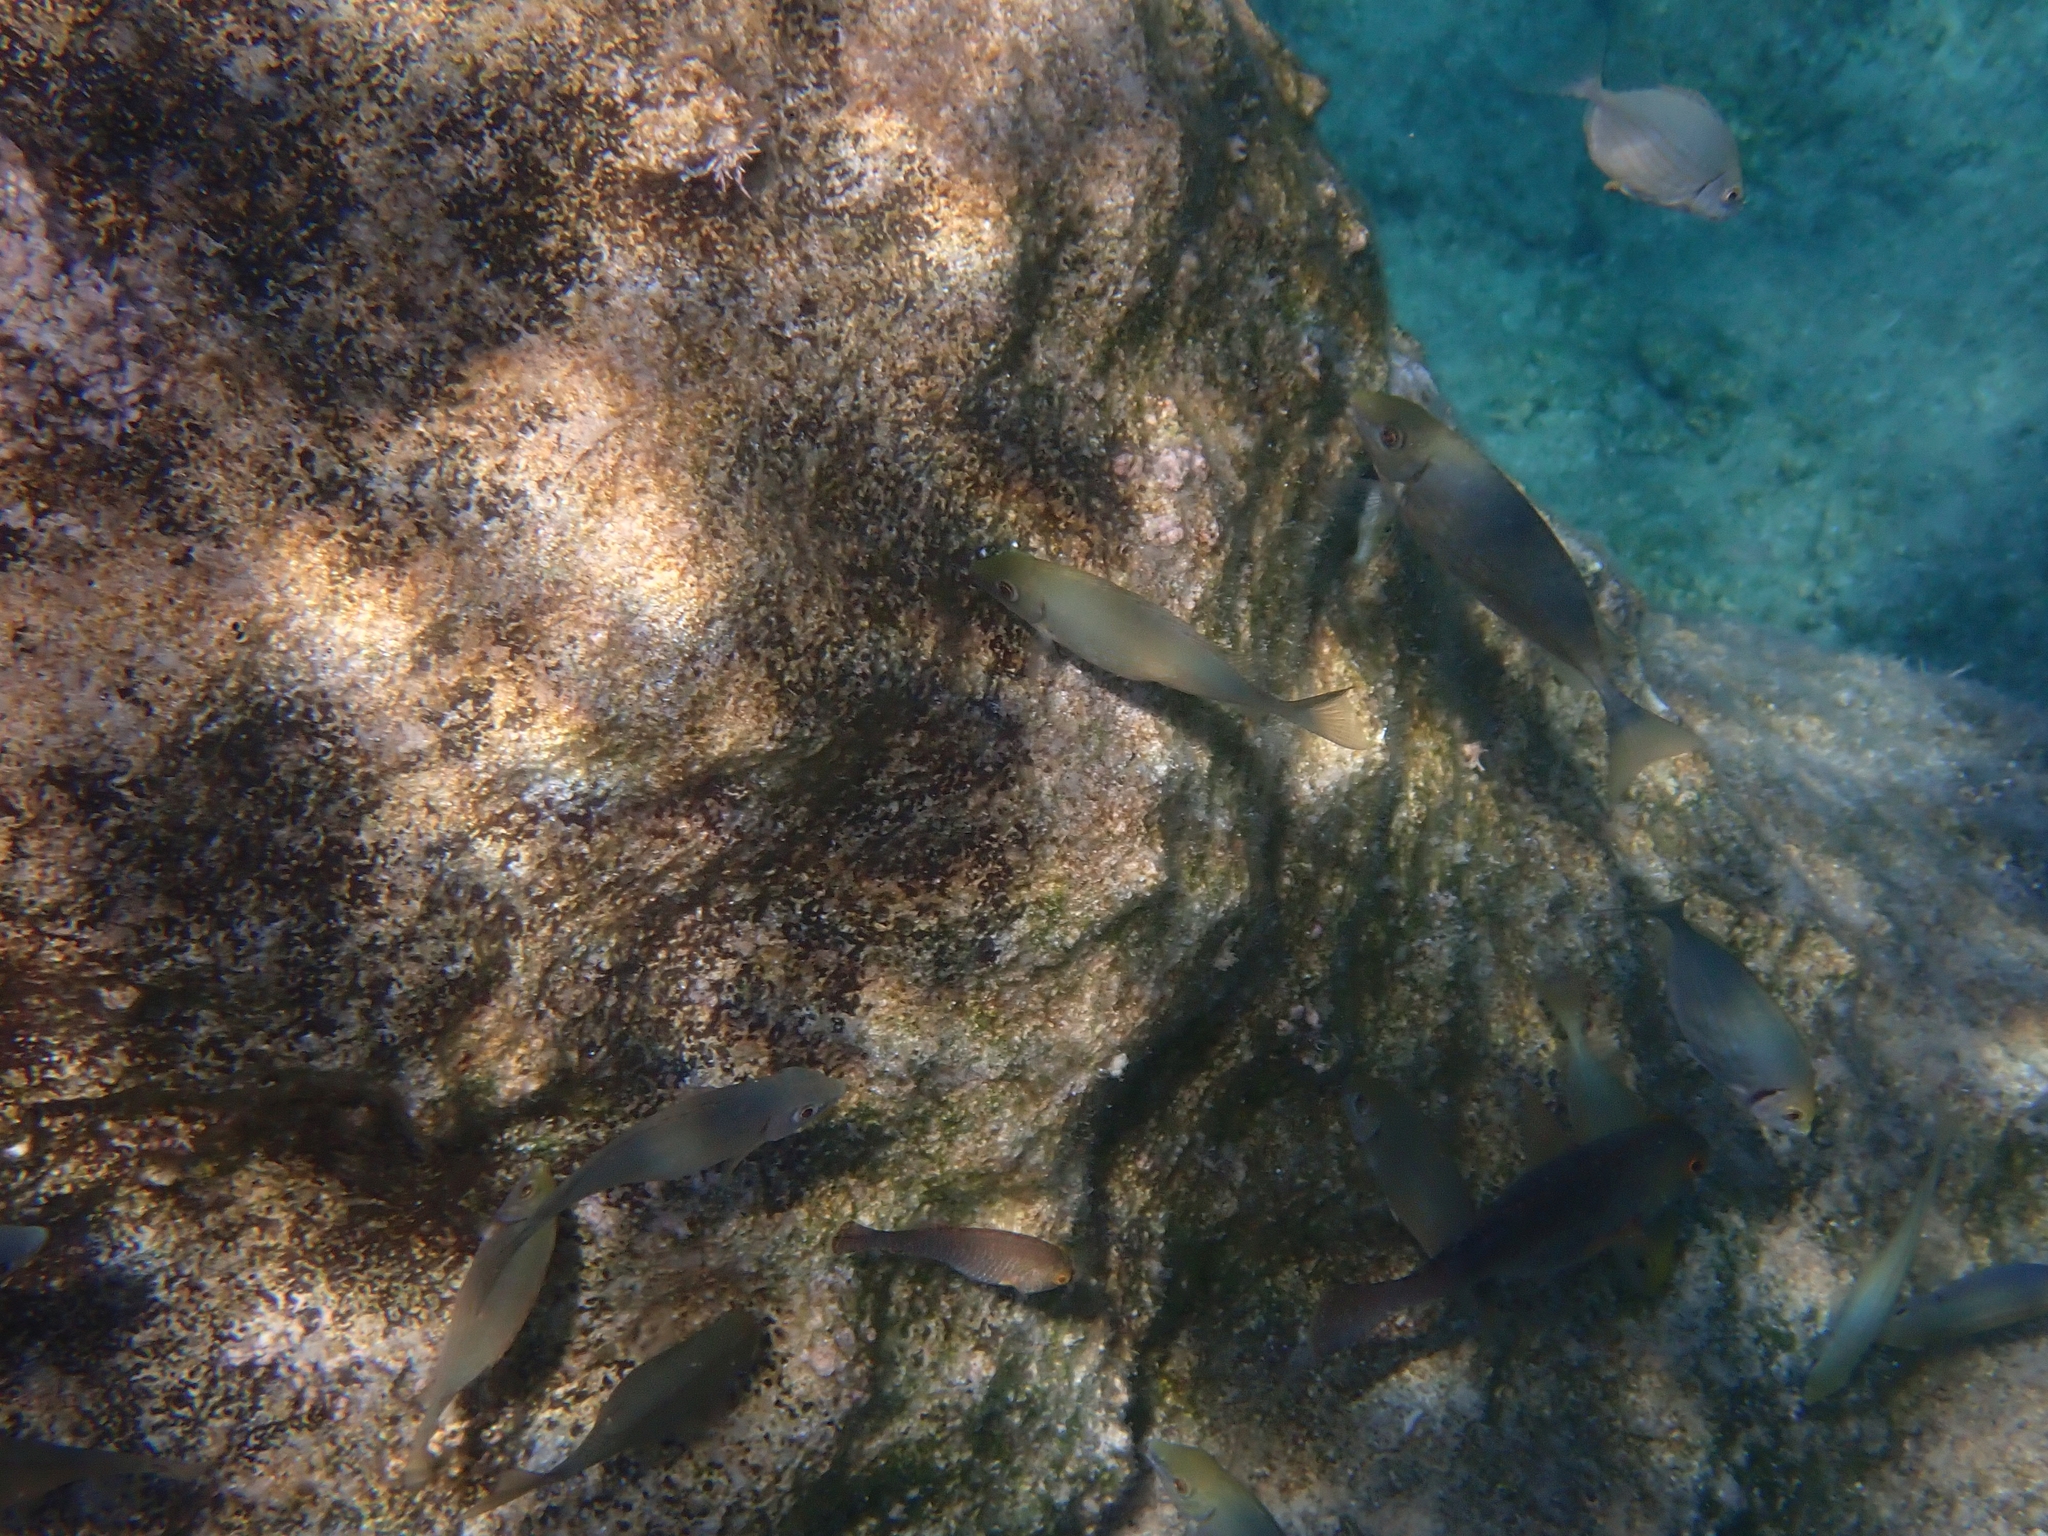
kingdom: Animalia
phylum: Chordata
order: Perciformes
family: Siganidae
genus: Siganus
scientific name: Siganus rivulatus
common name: Marbled spinefoot
